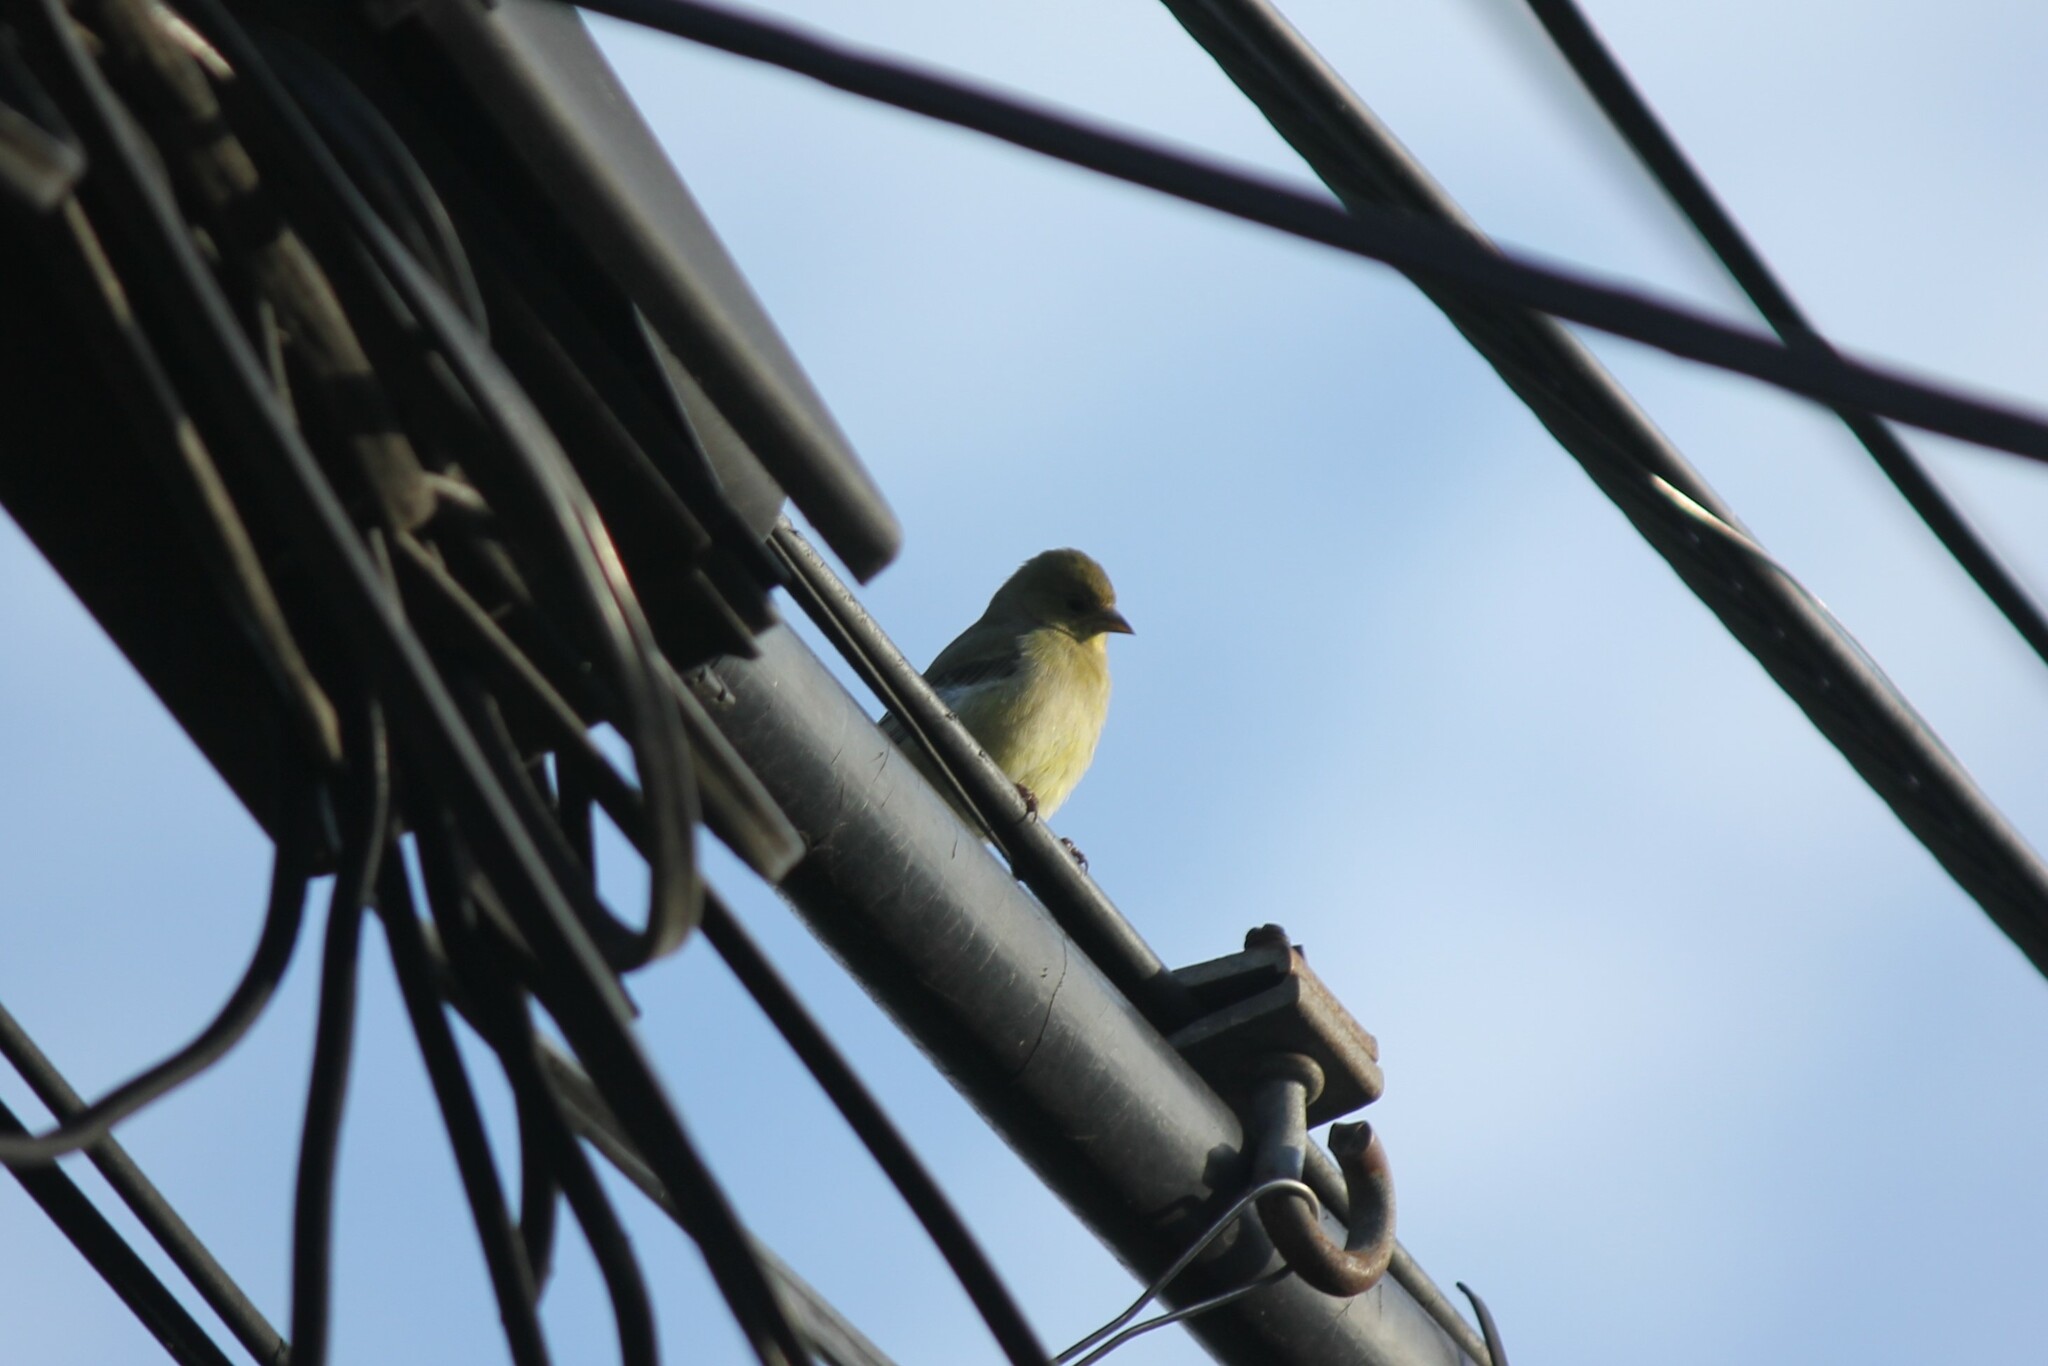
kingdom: Animalia
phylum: Chordata
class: Aves
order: Passeriformes
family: Fringillidae
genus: Spinus
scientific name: Spinus psaltria
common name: Lesser goldfinch
